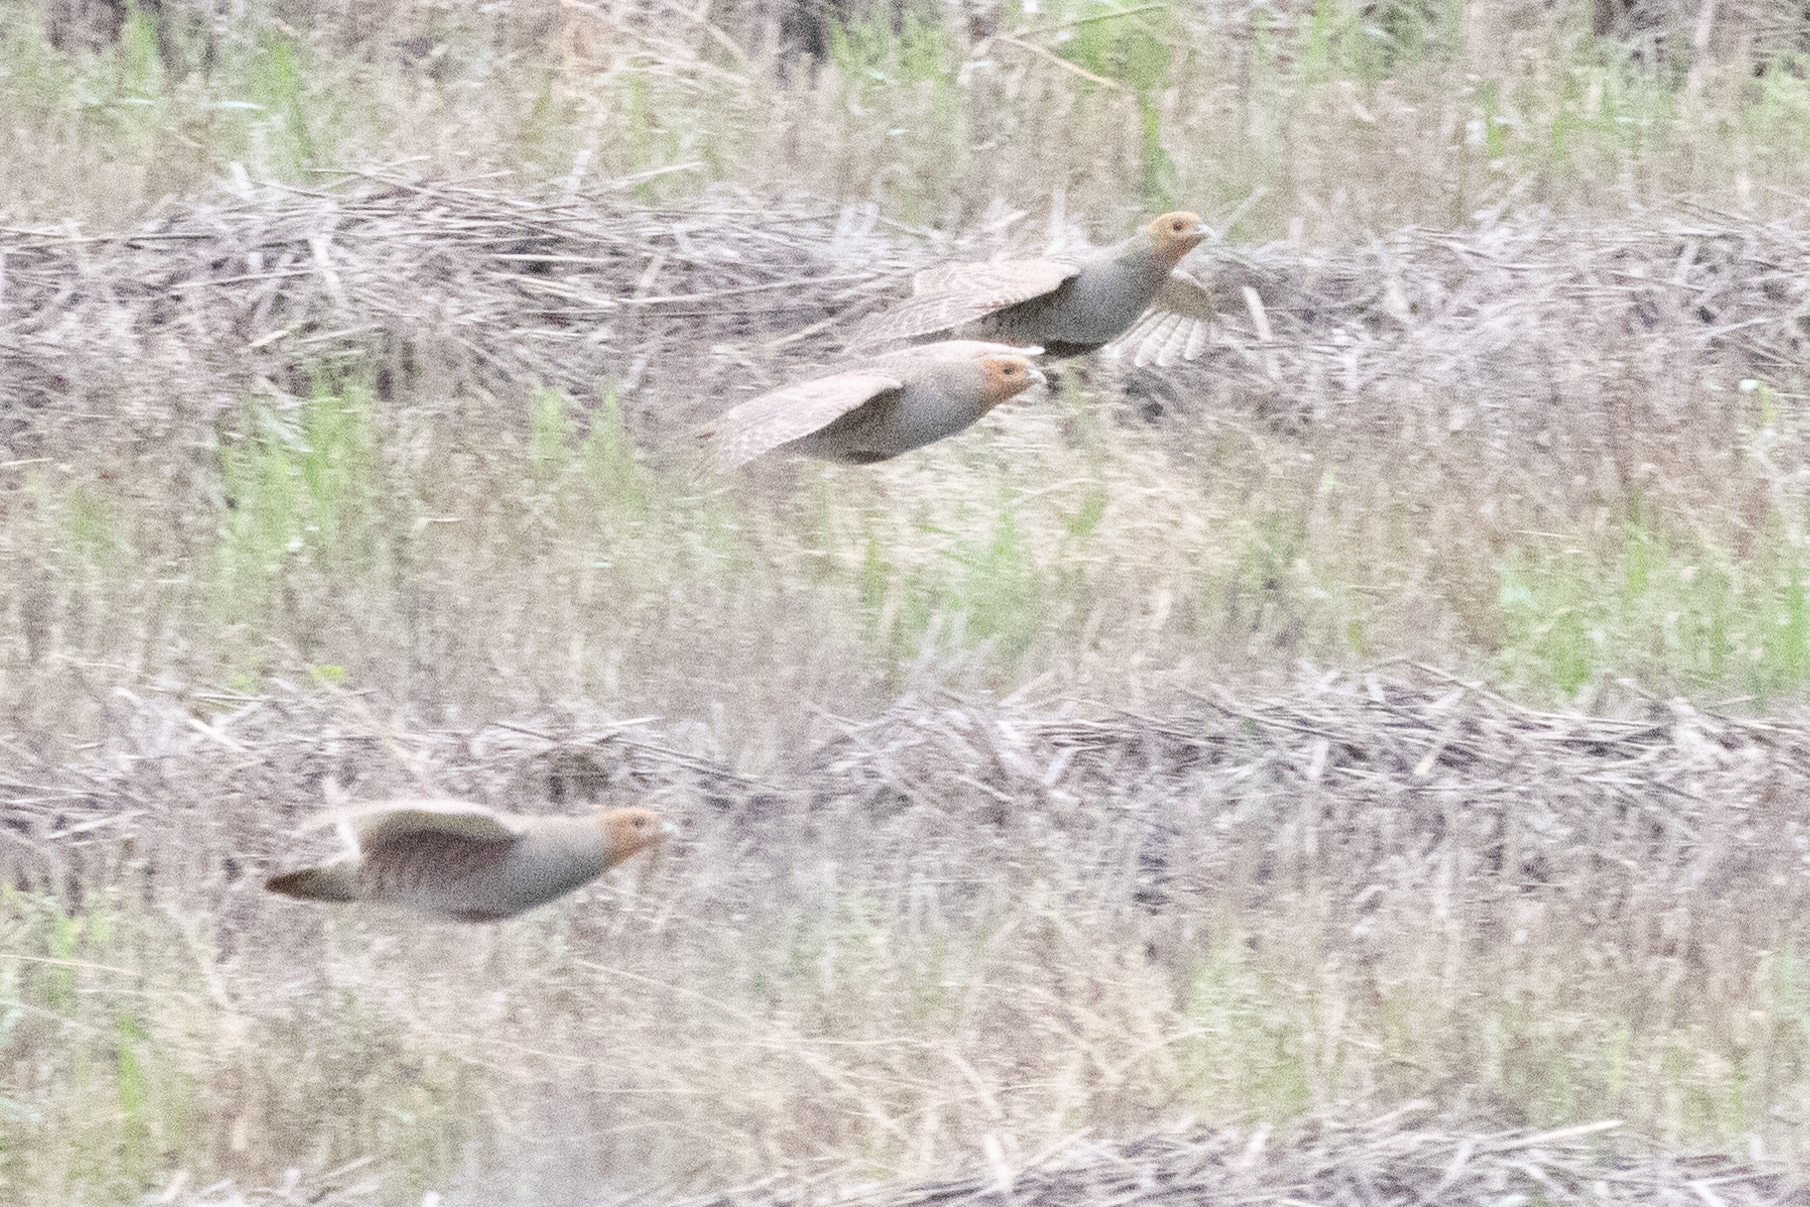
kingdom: Animalia
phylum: Chordata
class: Aves
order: Galliformes
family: Phasianidae
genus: Perdix
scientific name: Perdix perdix
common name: Grey partridge
